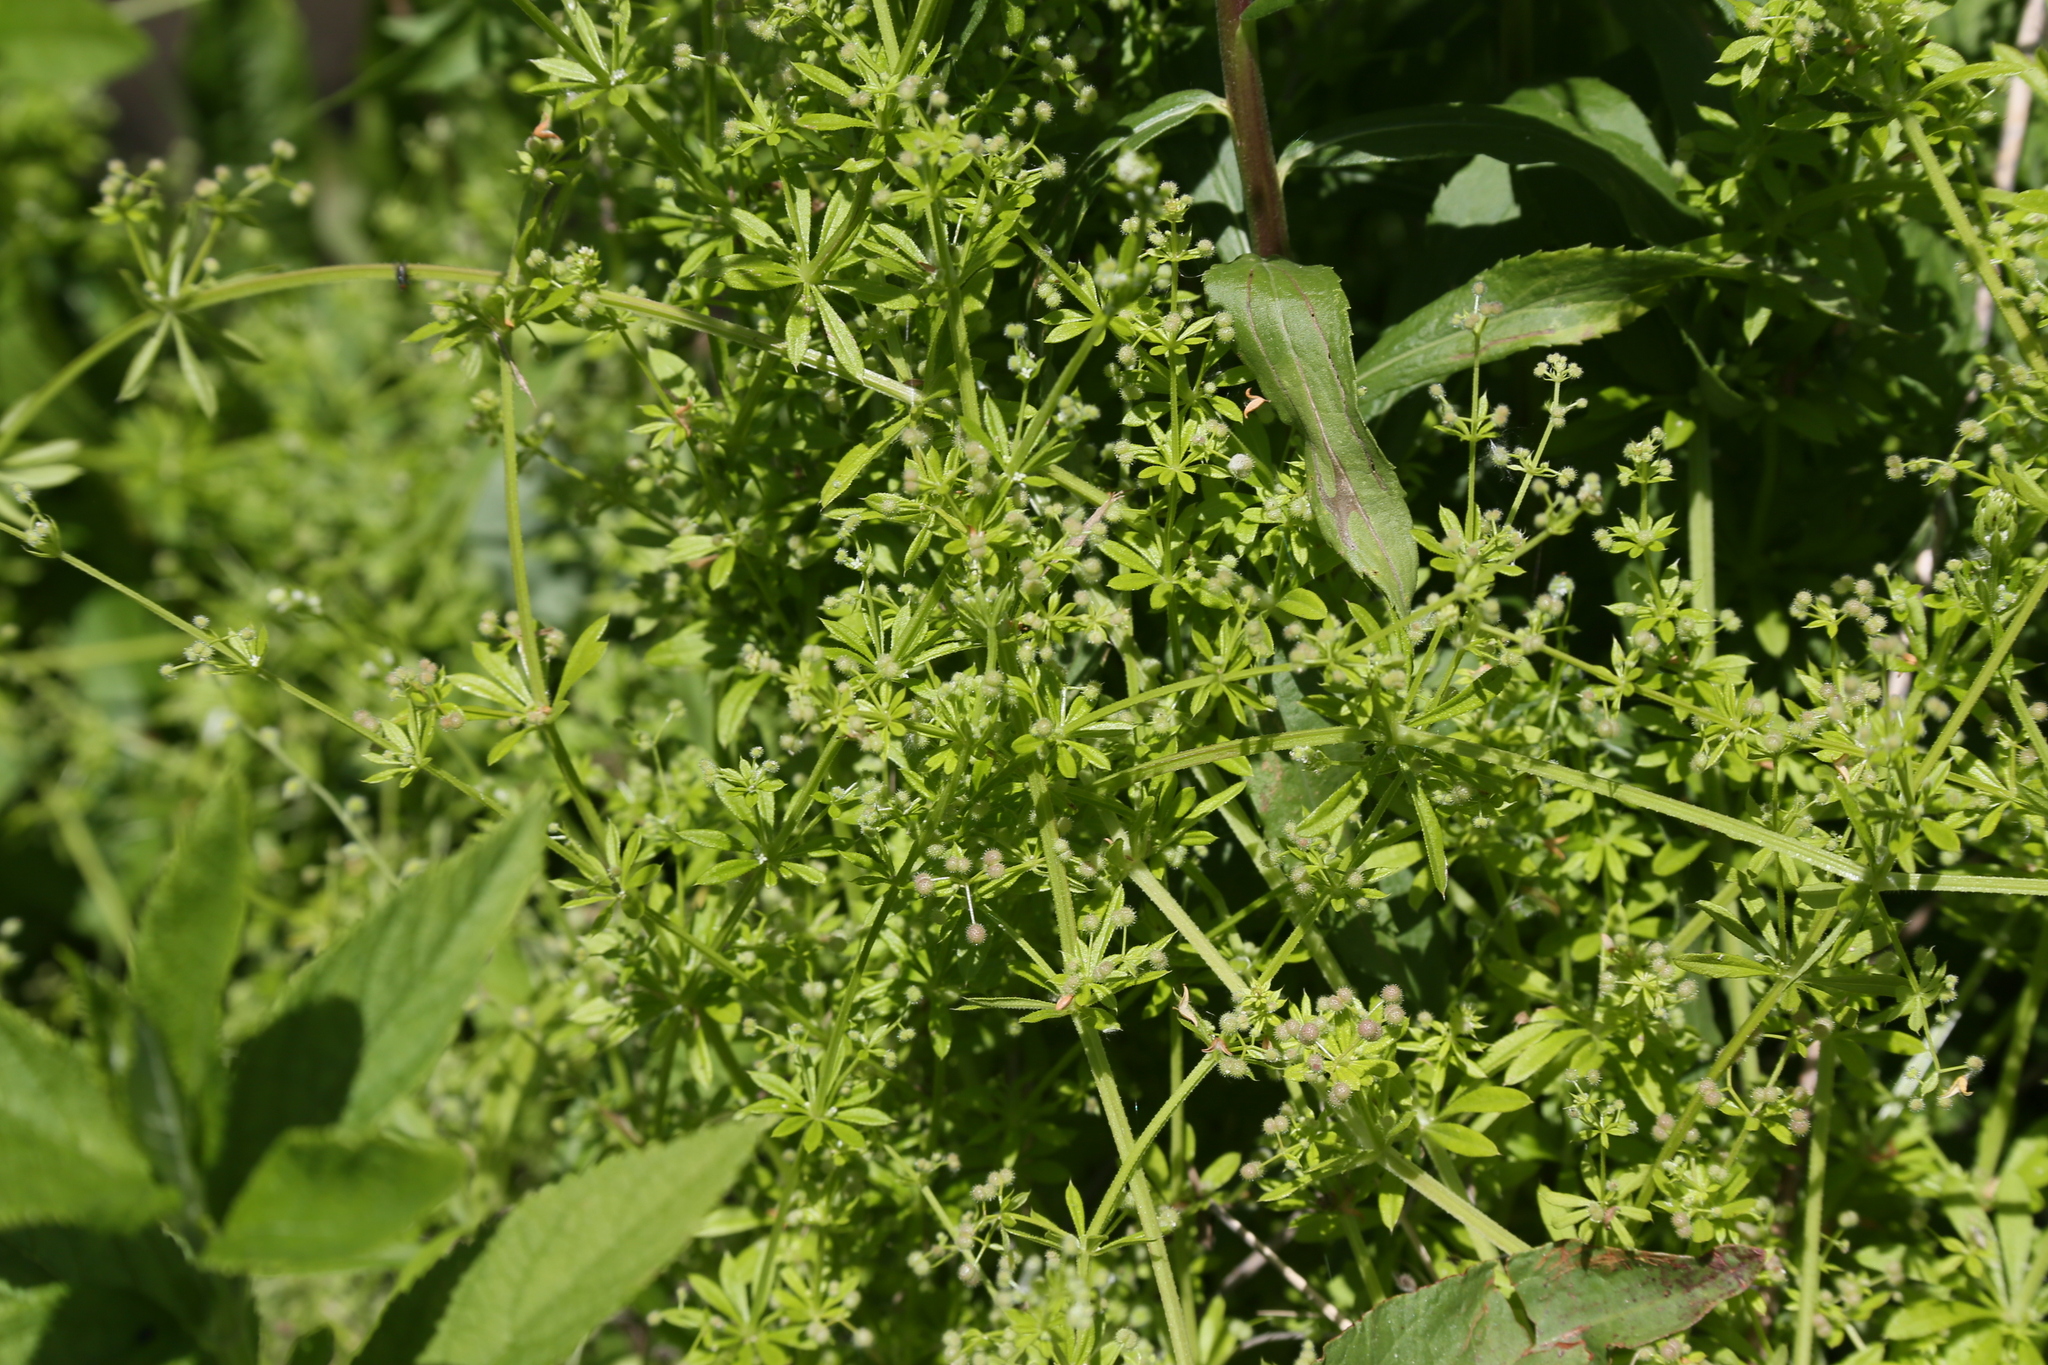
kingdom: Plantae
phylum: Tracheophyta
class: Magnoliopsida
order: Gentianales
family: Rubiaceae
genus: Galium
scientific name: Galium aparine
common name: Cleavers
